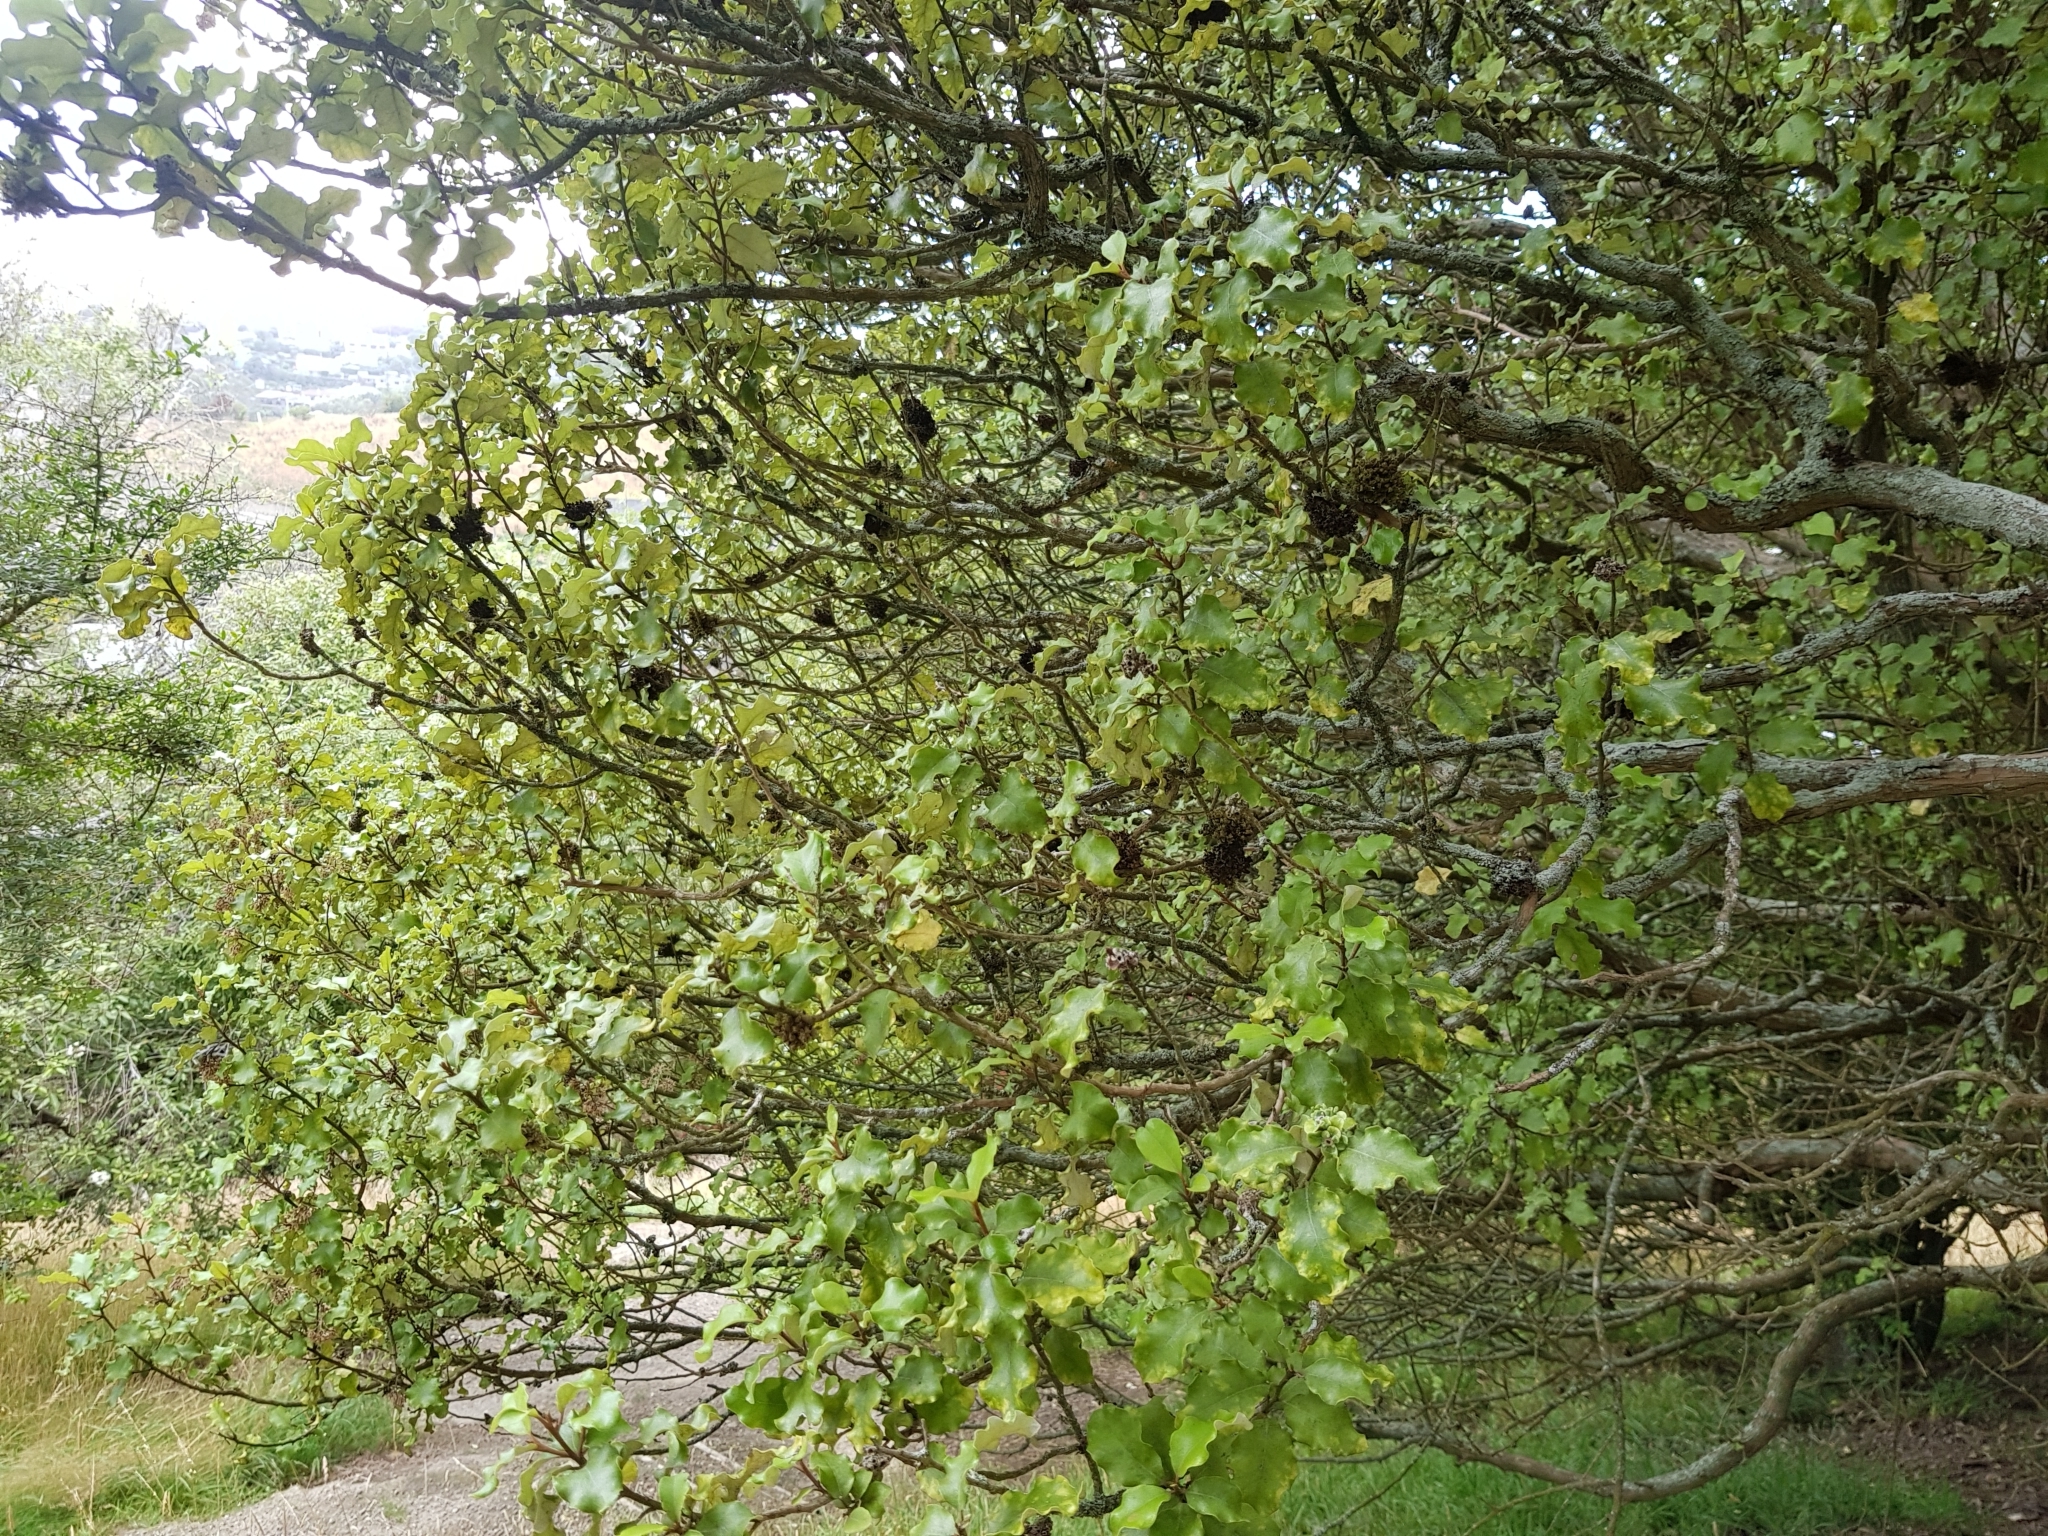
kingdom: Plantae
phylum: Tracheophyta
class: Magnoliopsida
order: Asterales
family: Asteraceae
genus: Olearia
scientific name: Olearia paniculata
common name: Akiraho
